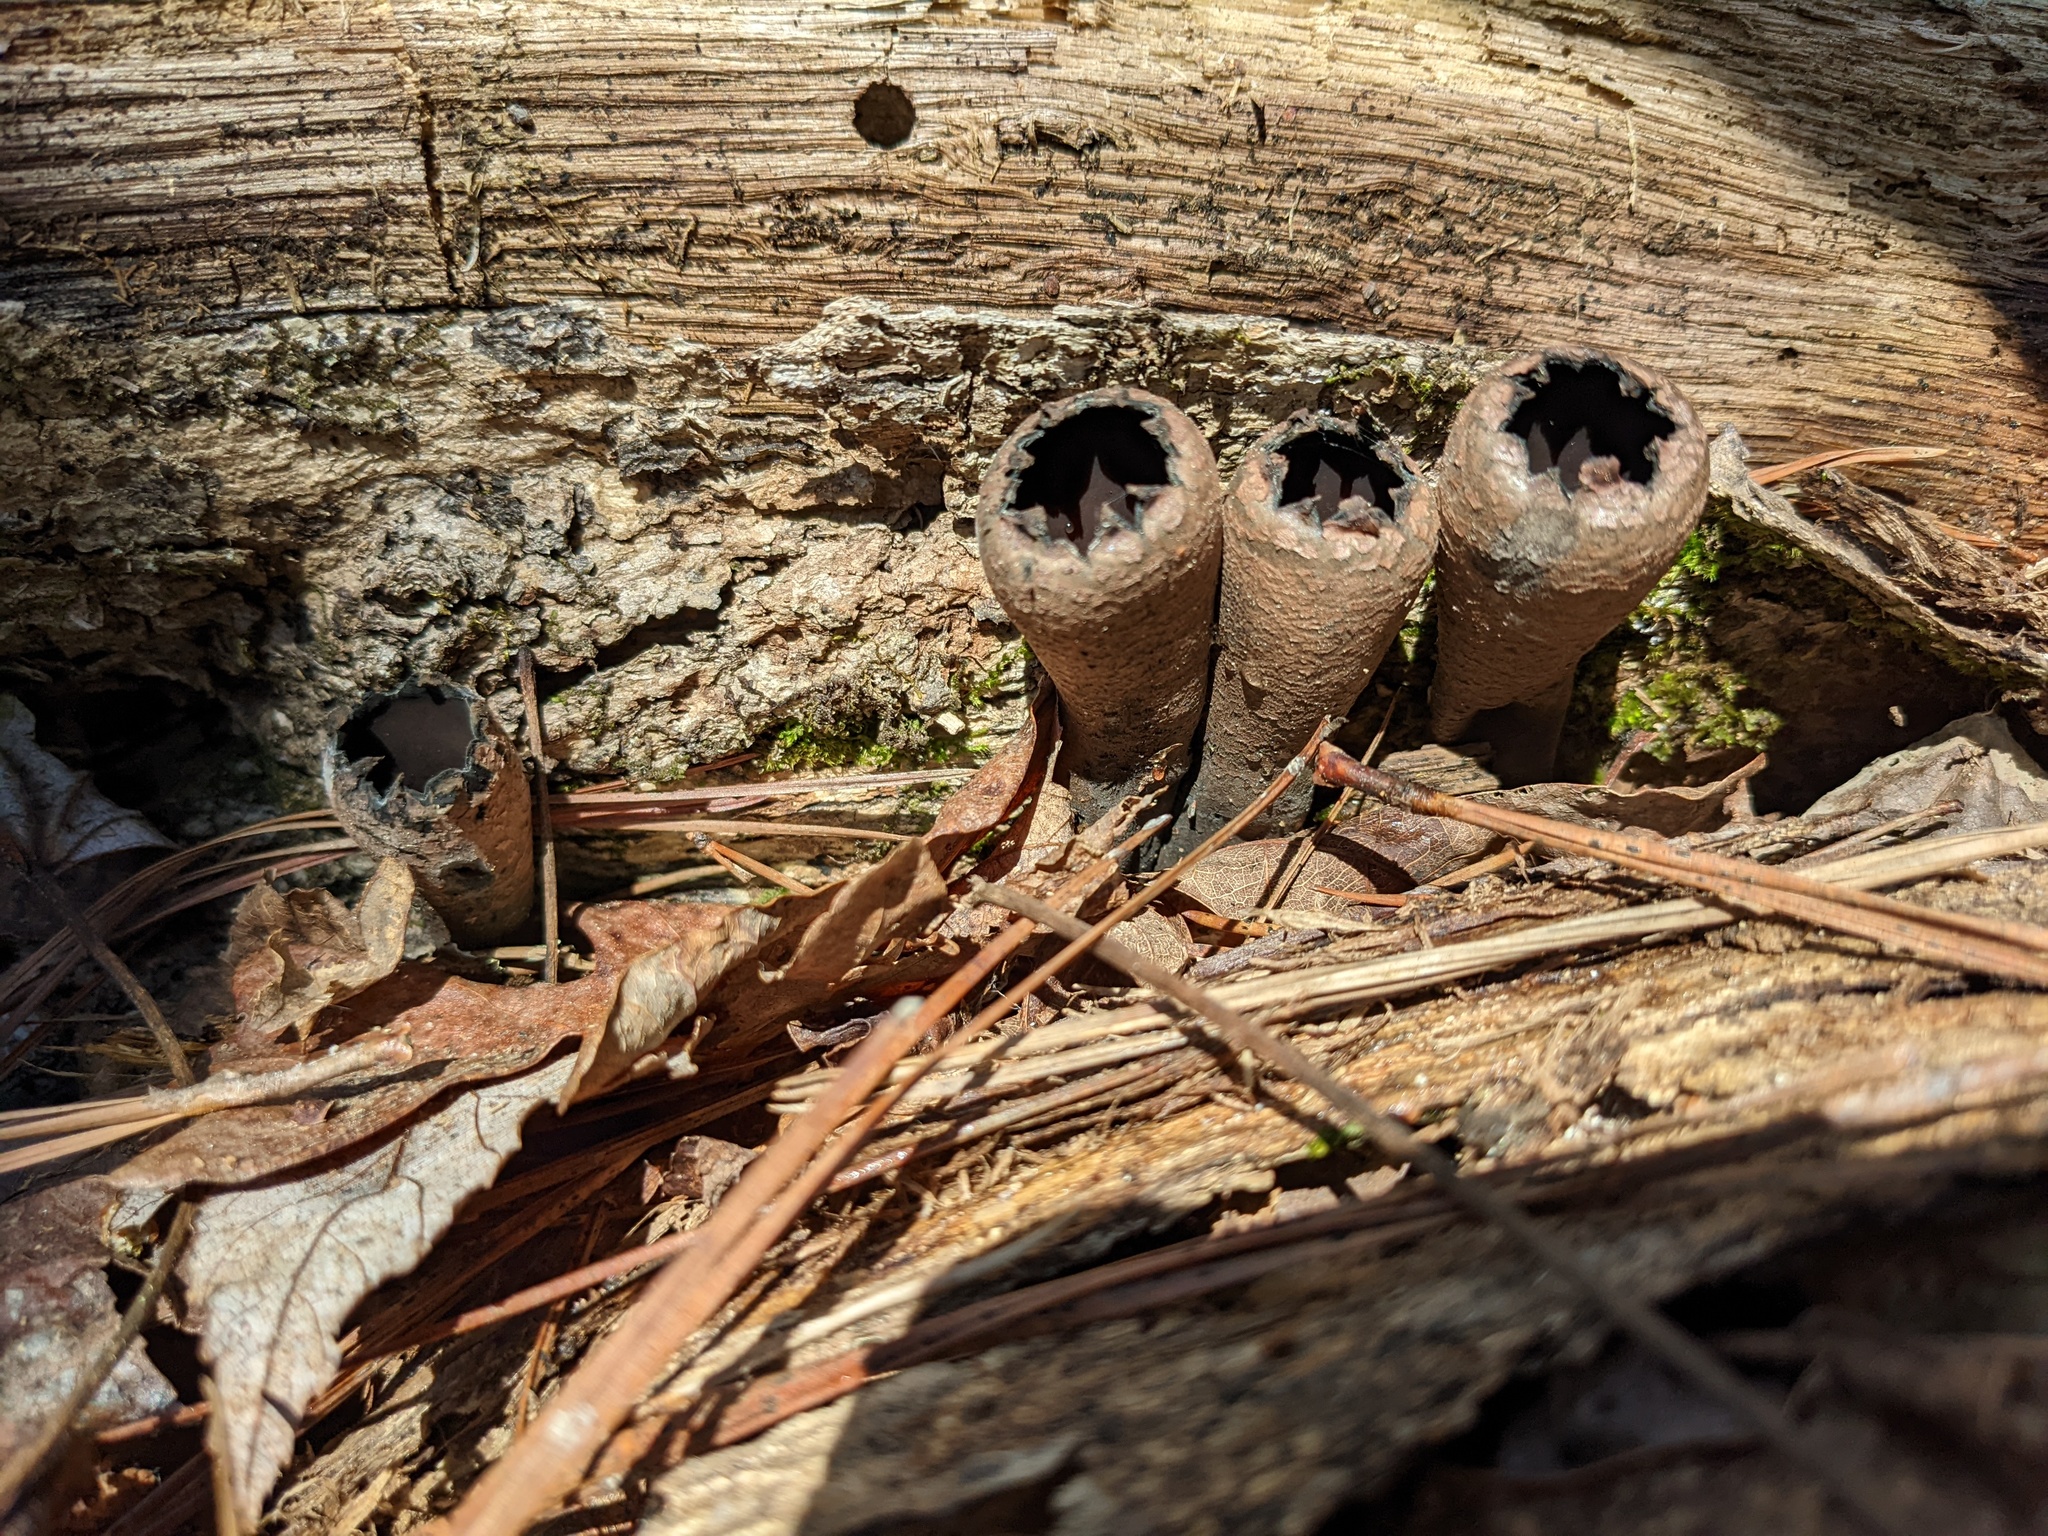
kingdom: Fungi
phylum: Ascomycota
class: Pezizomycetes
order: Pezizales
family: Sarcosomataceae
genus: Urnula
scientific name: Urnula craterium
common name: Devil's urn
